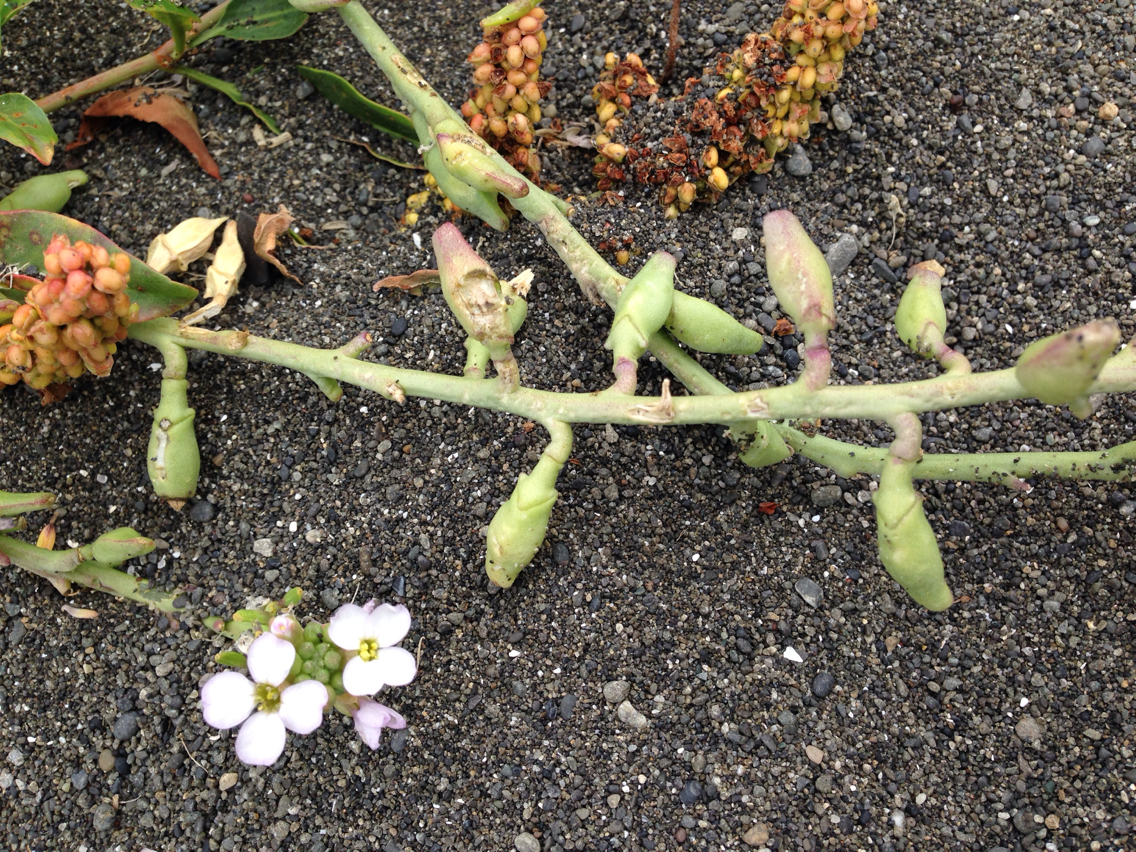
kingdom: Plantae
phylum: Tracheophyta
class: Magnoliopsida
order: Brassicales
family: Brassicaceae
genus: Cakile
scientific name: Cakile maritima
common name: Sea rocket
